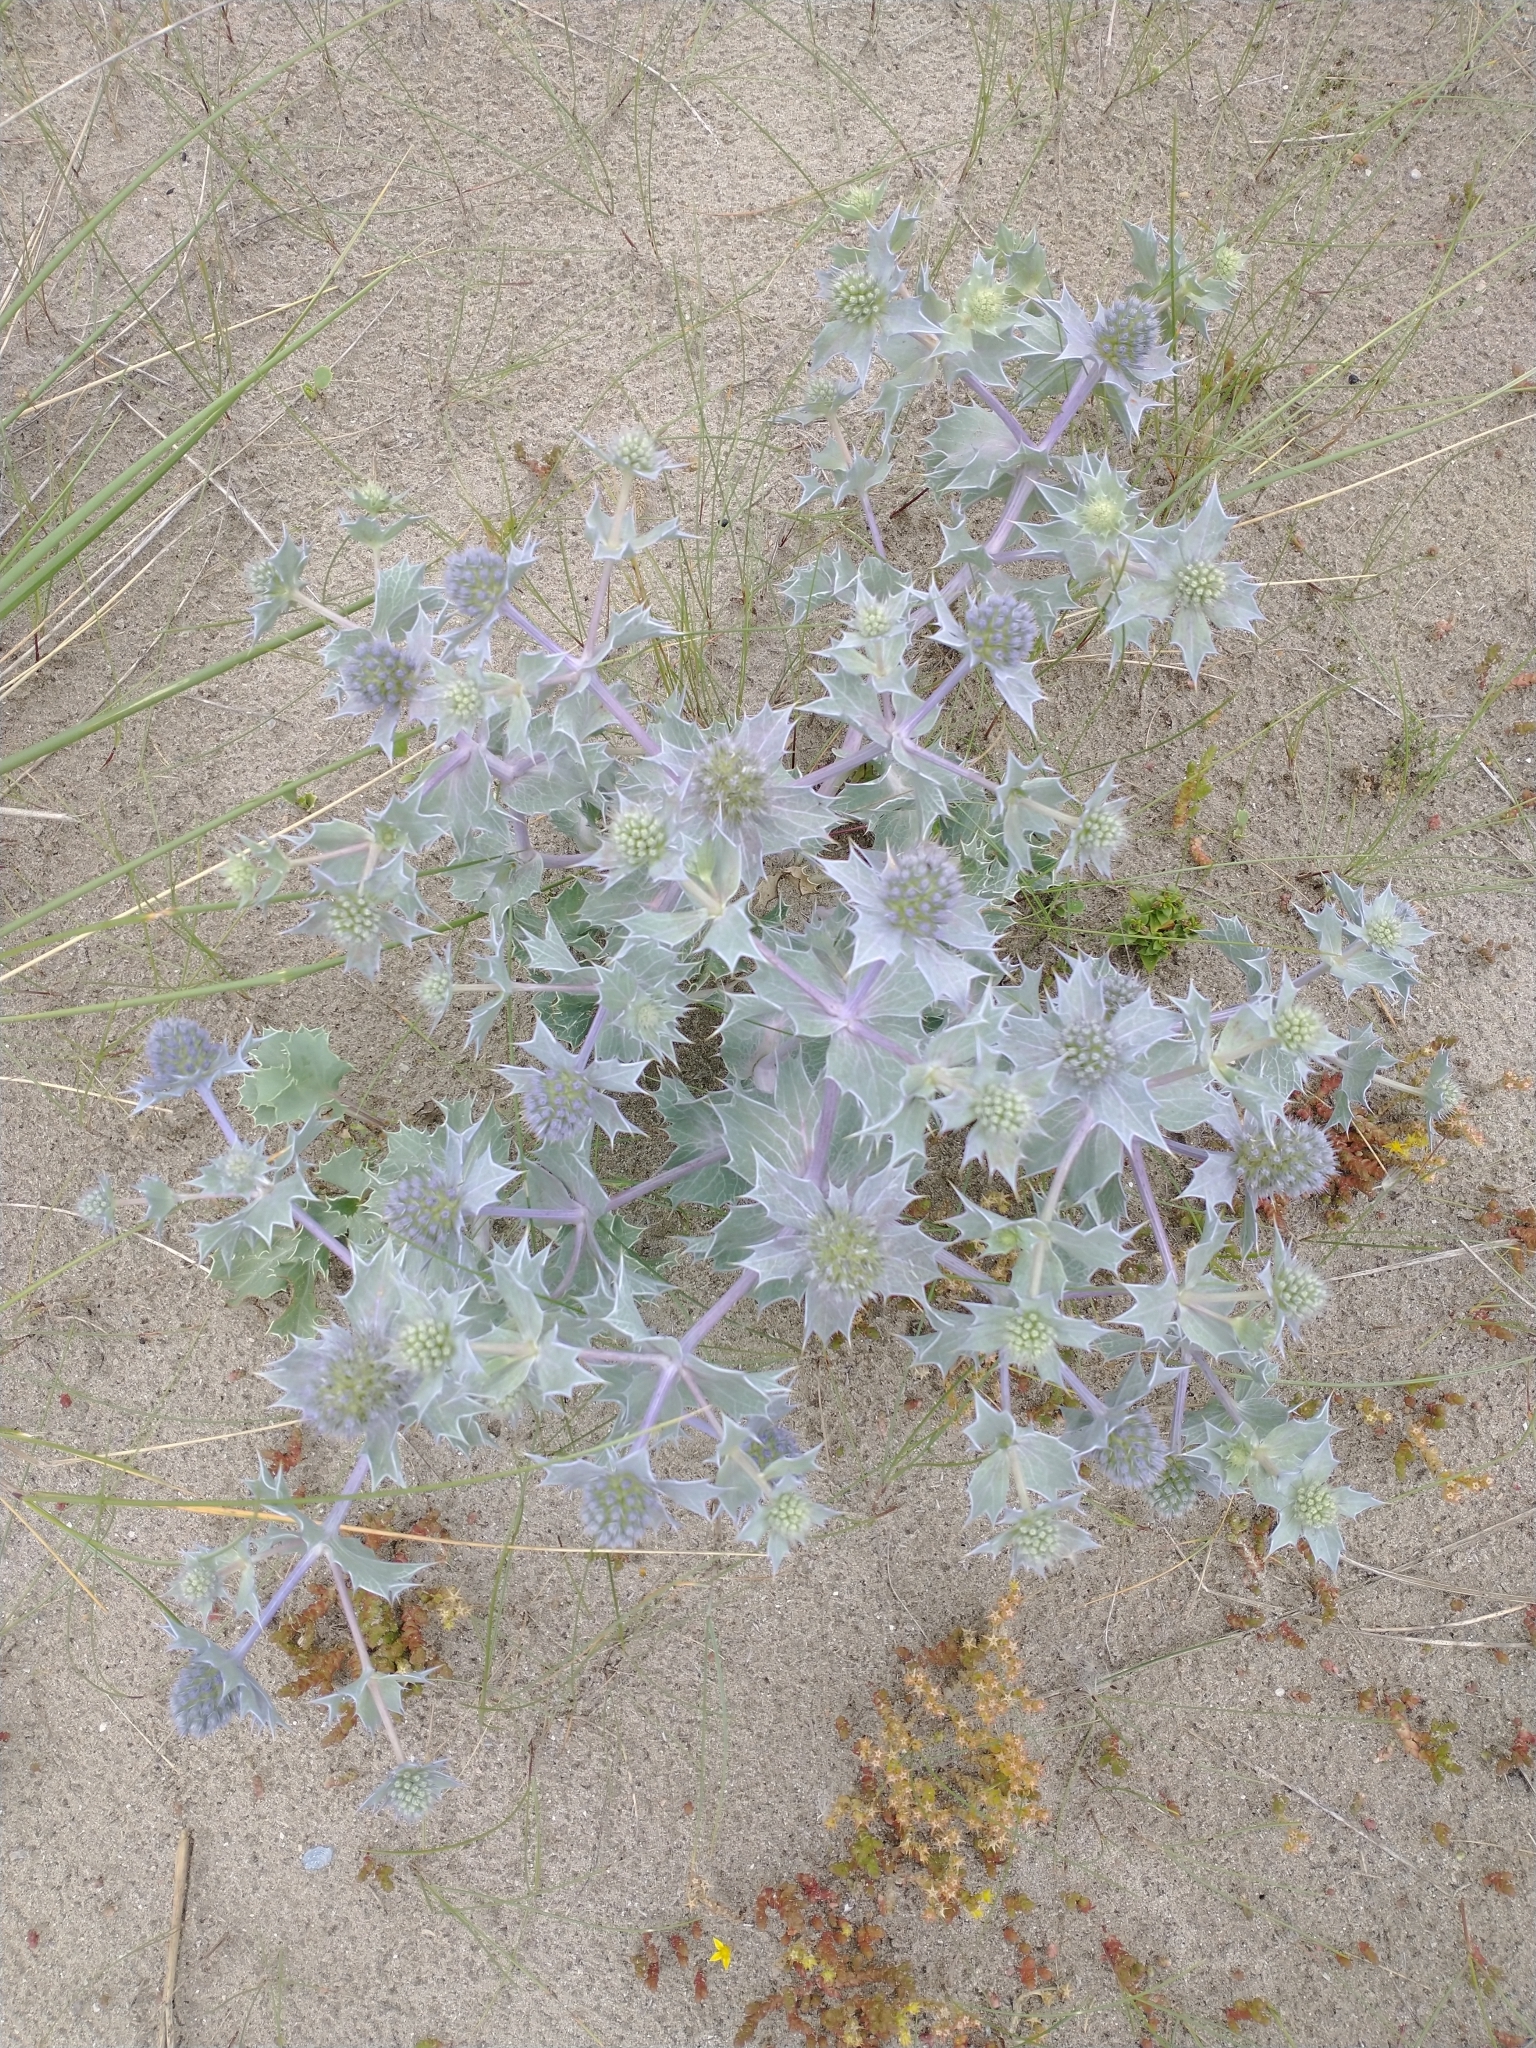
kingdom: Plantae
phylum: Tracheophyta
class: Magnoliopsida
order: Apiales
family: Apiaceae
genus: Eryngium
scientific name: Eryngium maritimum
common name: Sea-holly
